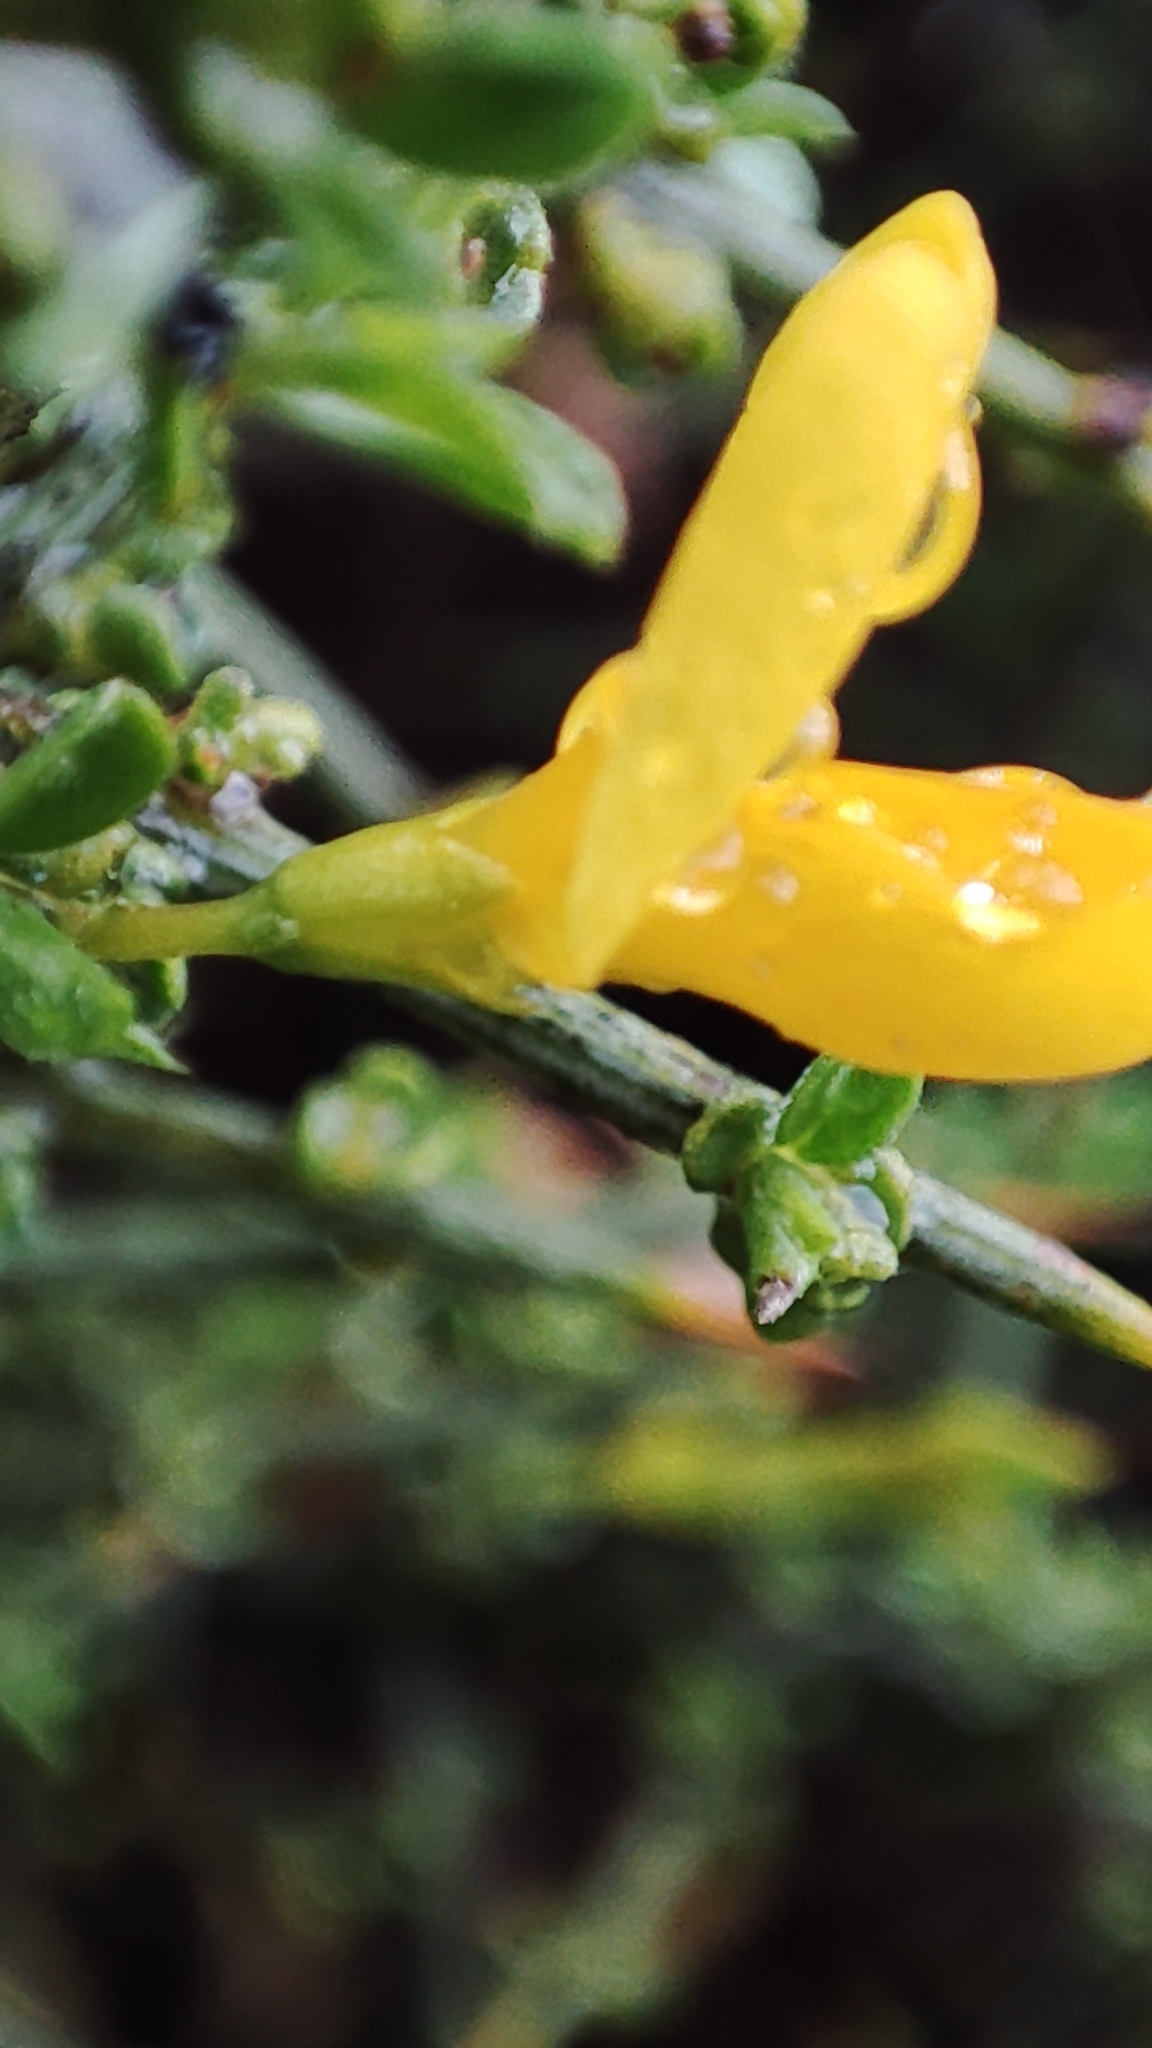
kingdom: Plantae
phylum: Tracheophyta
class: Magnoliopsida
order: Fabales
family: Fabaceae
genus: Genista
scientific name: Genista scorpius
